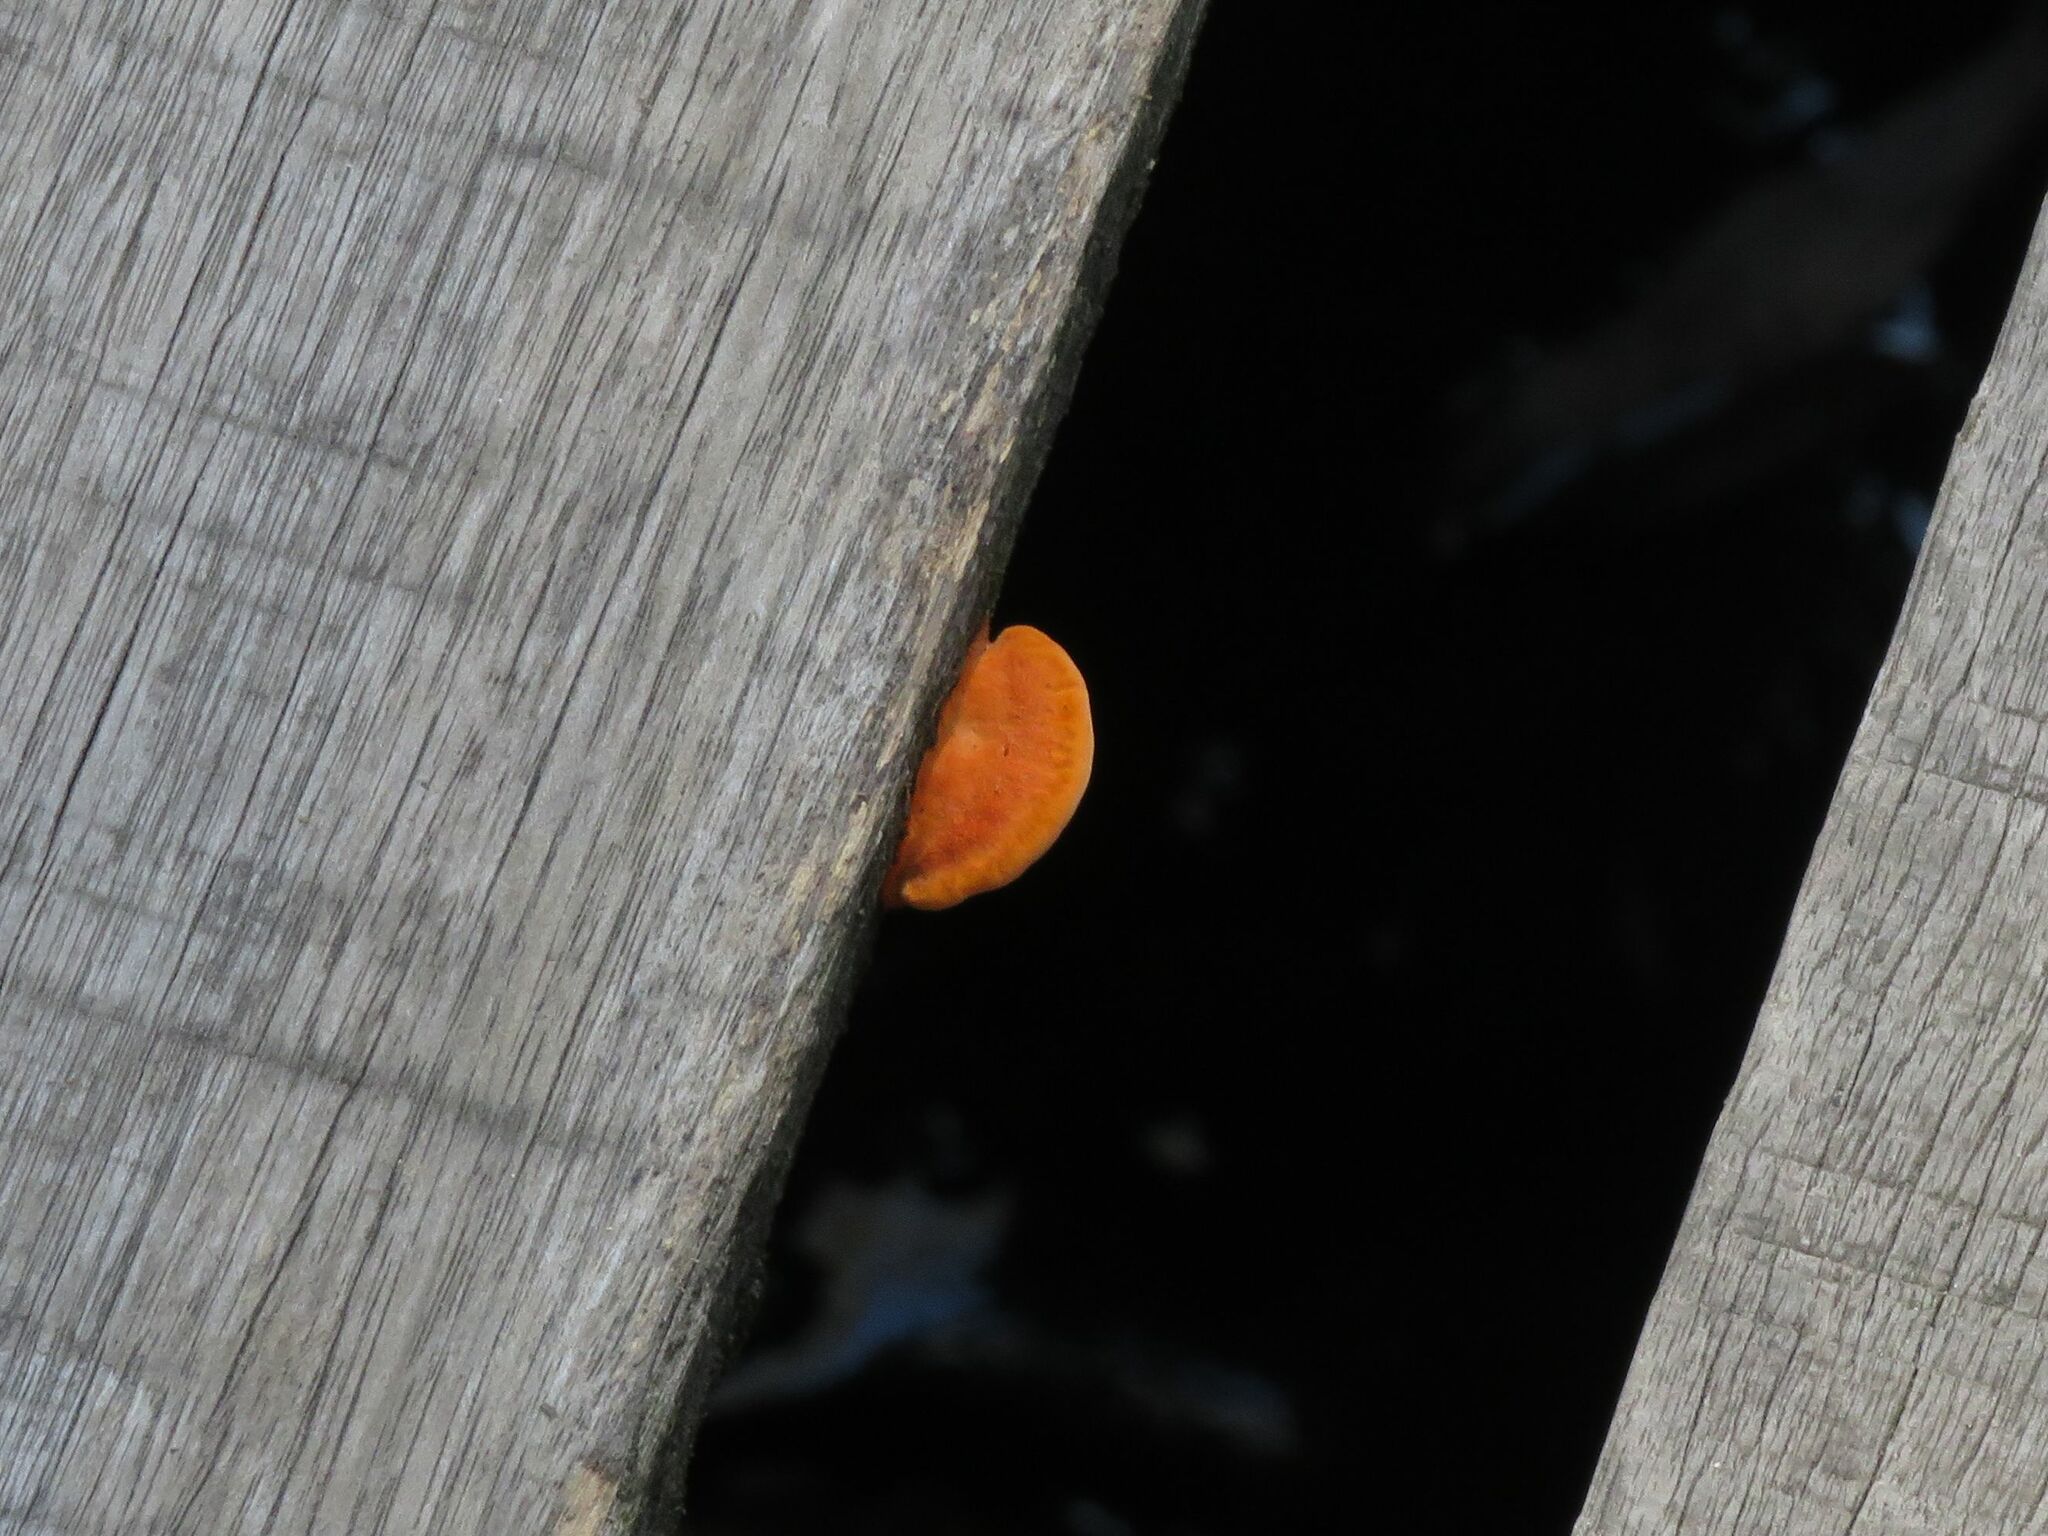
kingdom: Fungi
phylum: Basidiomycota
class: Agaricomycetes
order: Polyporales
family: Polyporaceae
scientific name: Polyporaceae
